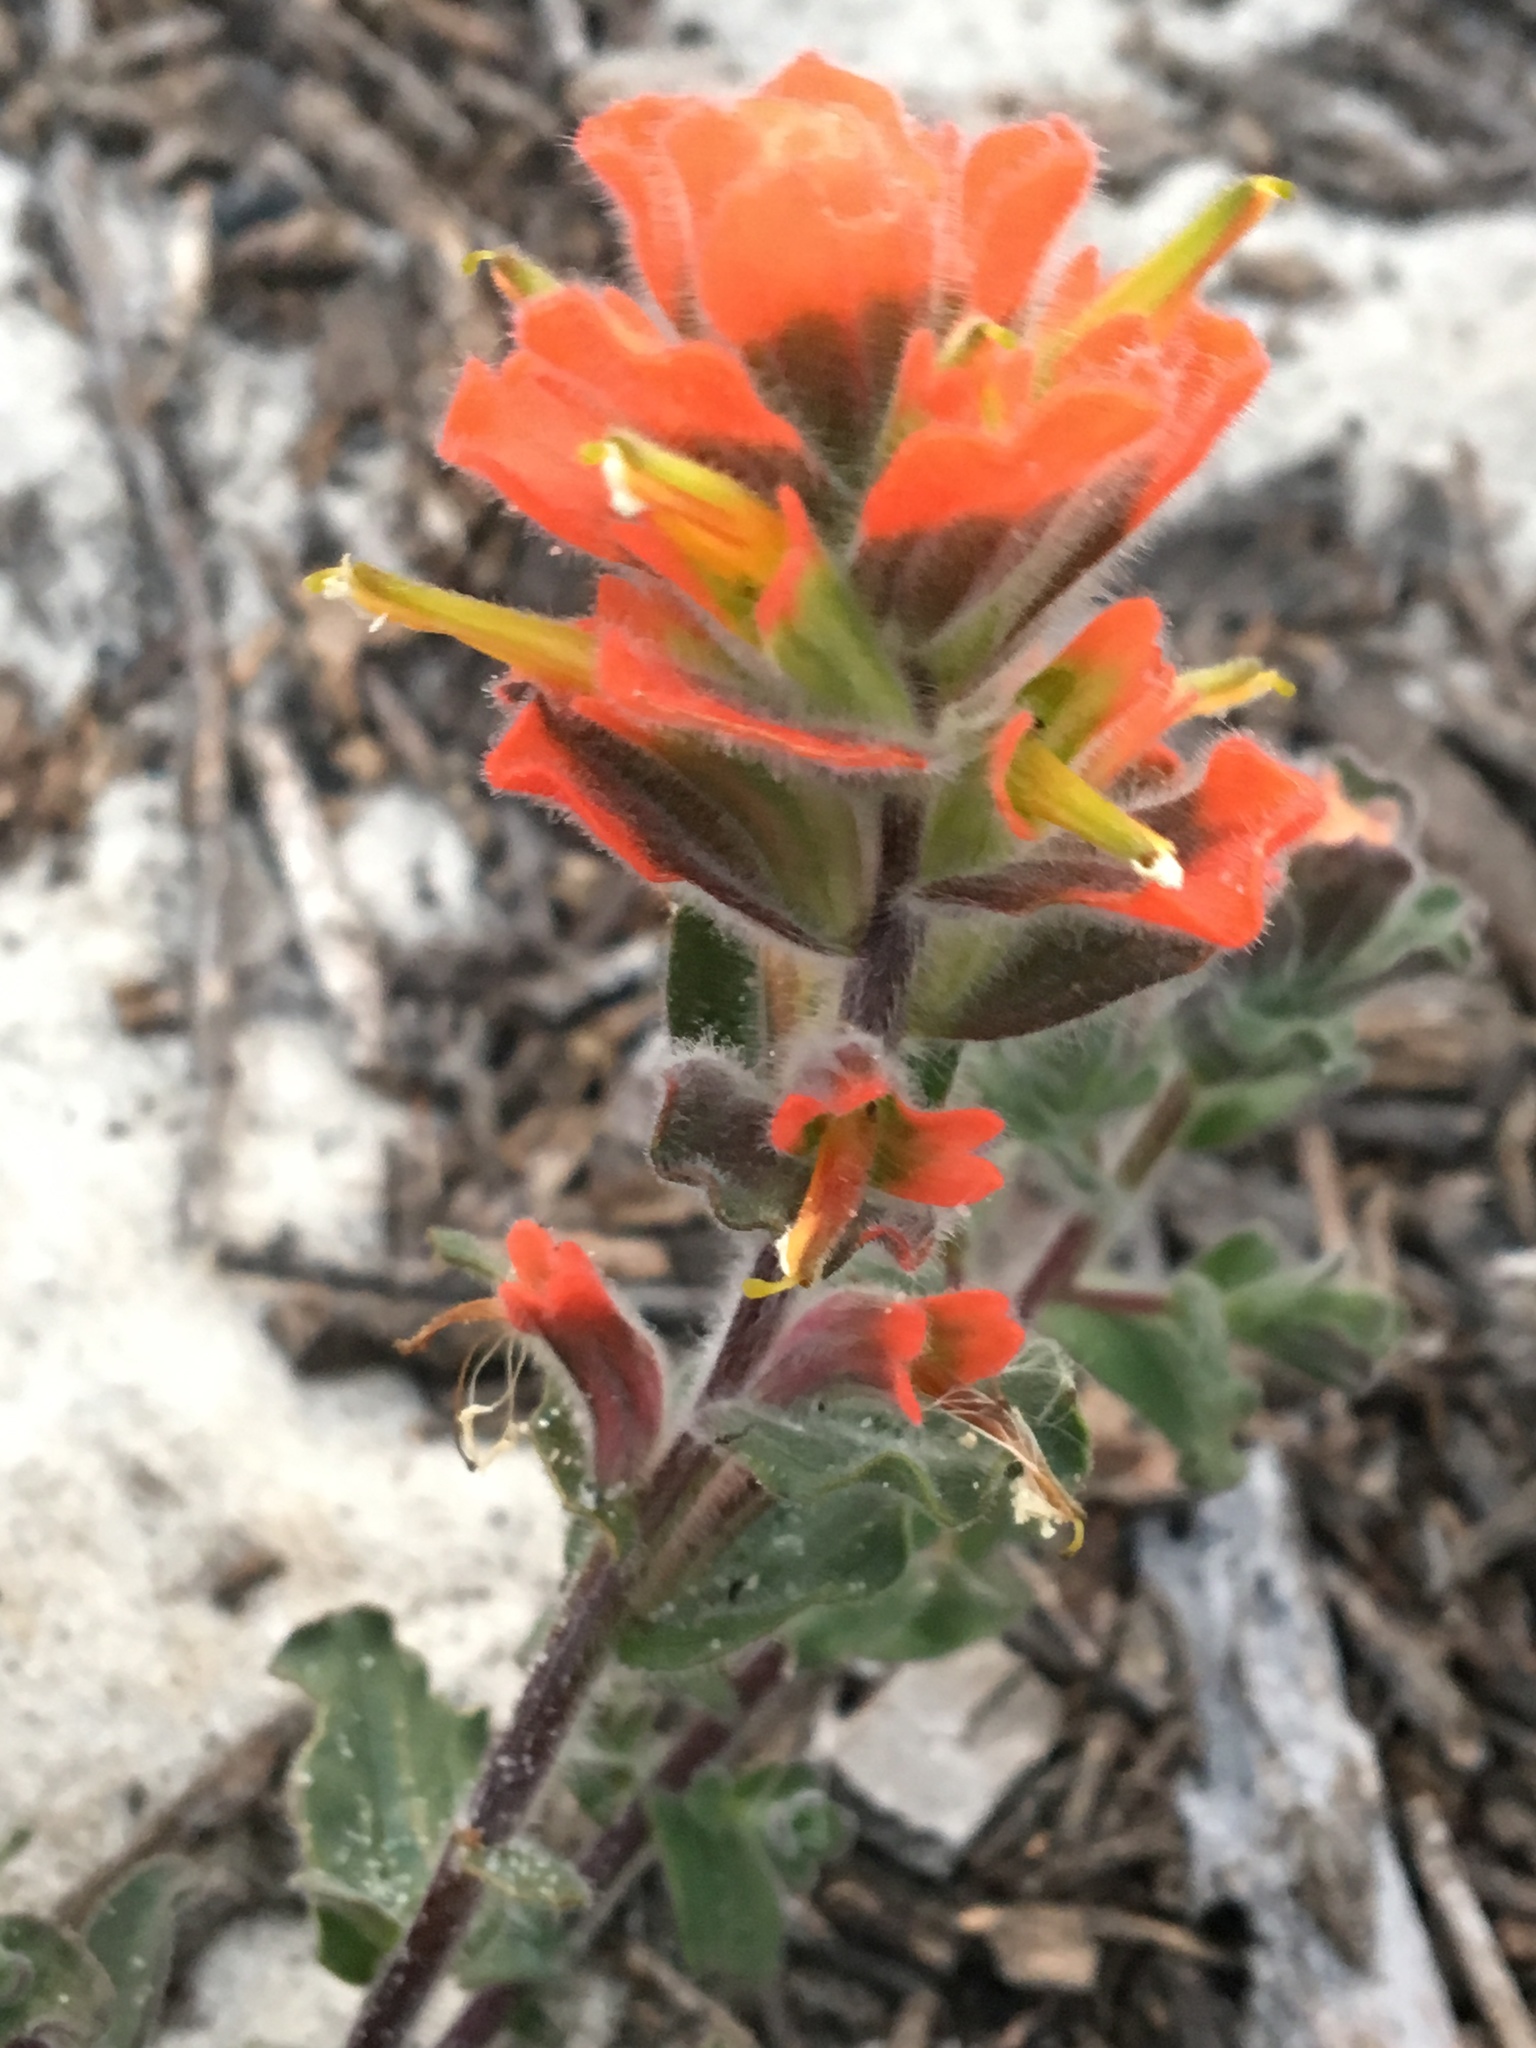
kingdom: Plantae
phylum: Tracheophyta
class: Magnoliopsida
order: Lamiales
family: Orobanchaceae
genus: Castilleja
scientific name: Castilleja latifolia
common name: Monterey indian paintbrush
